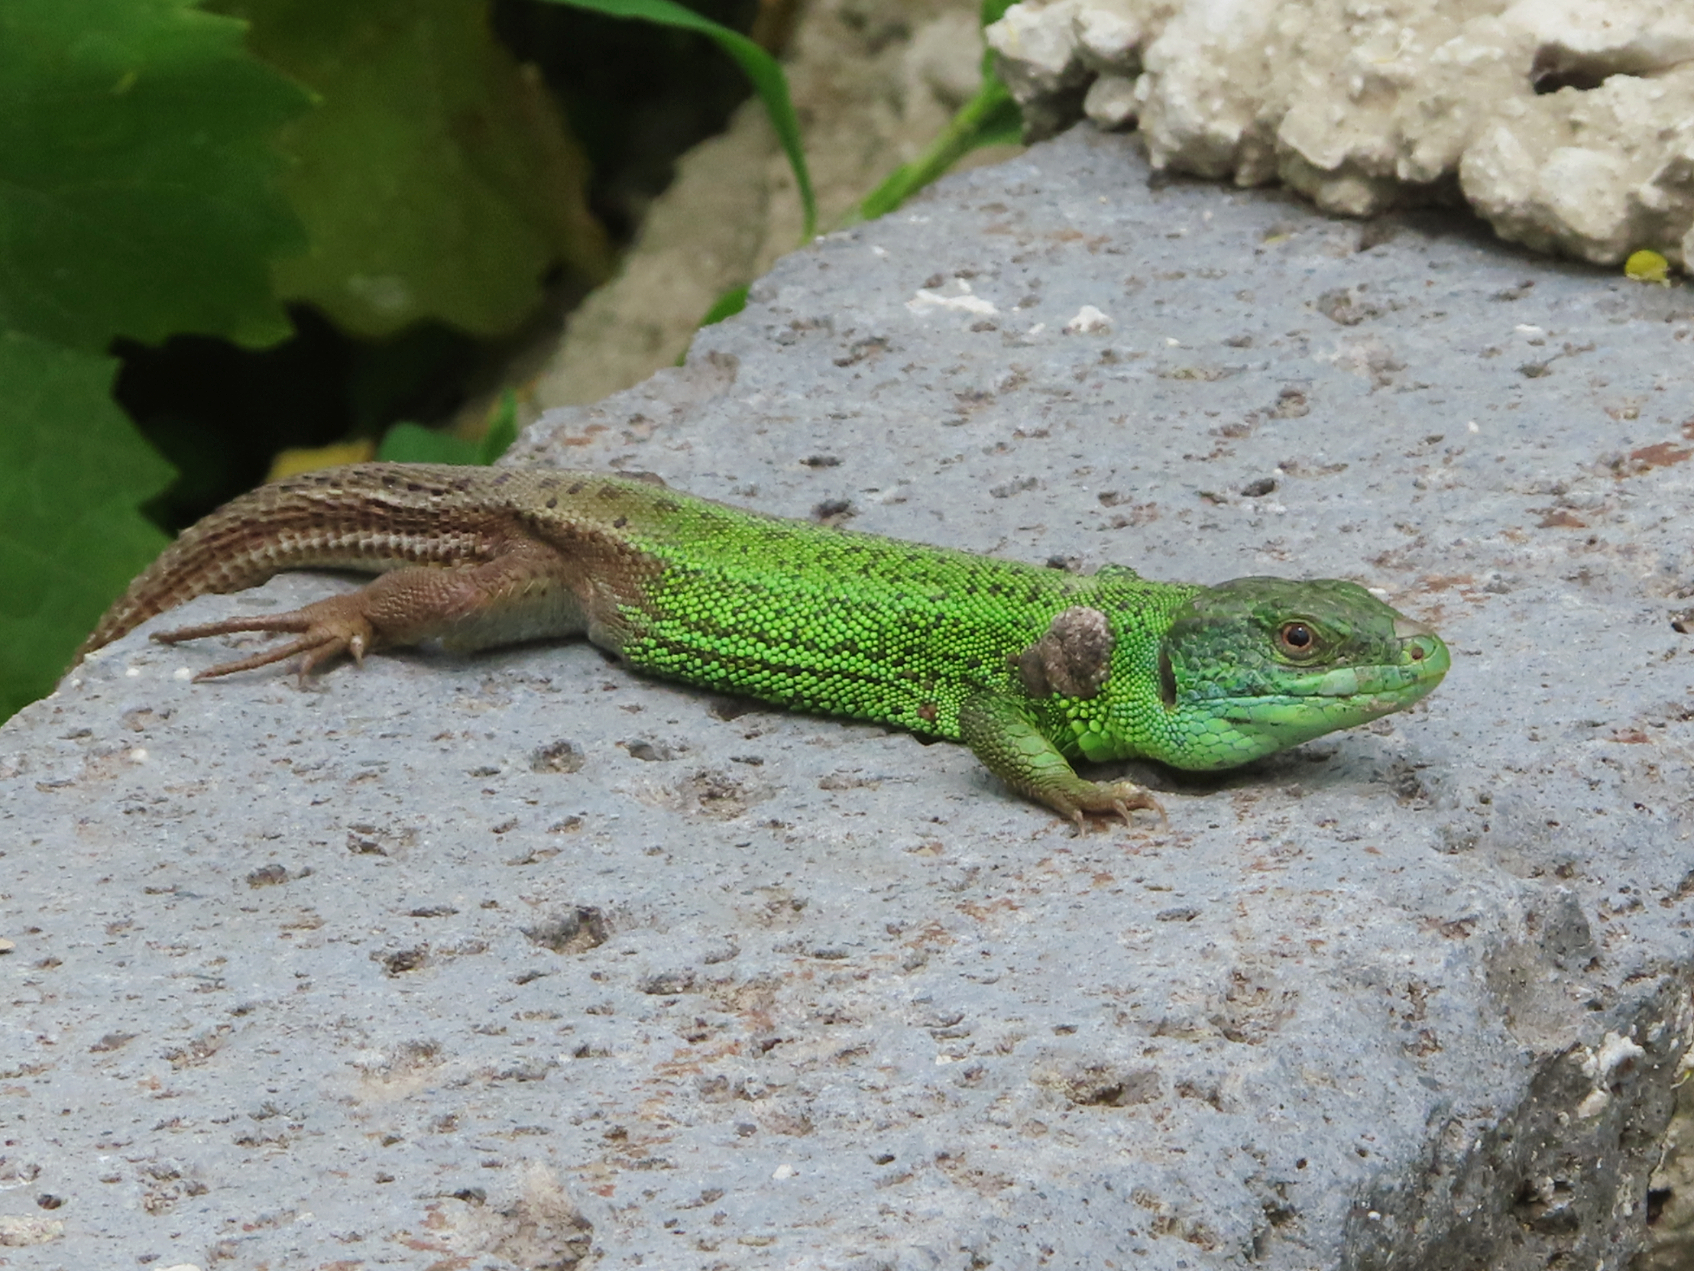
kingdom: Animalia
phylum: Chordata
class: Squamata
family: Lacertidae
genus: Lacerta
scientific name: Lacerta strigata
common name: Caspian green lizard
